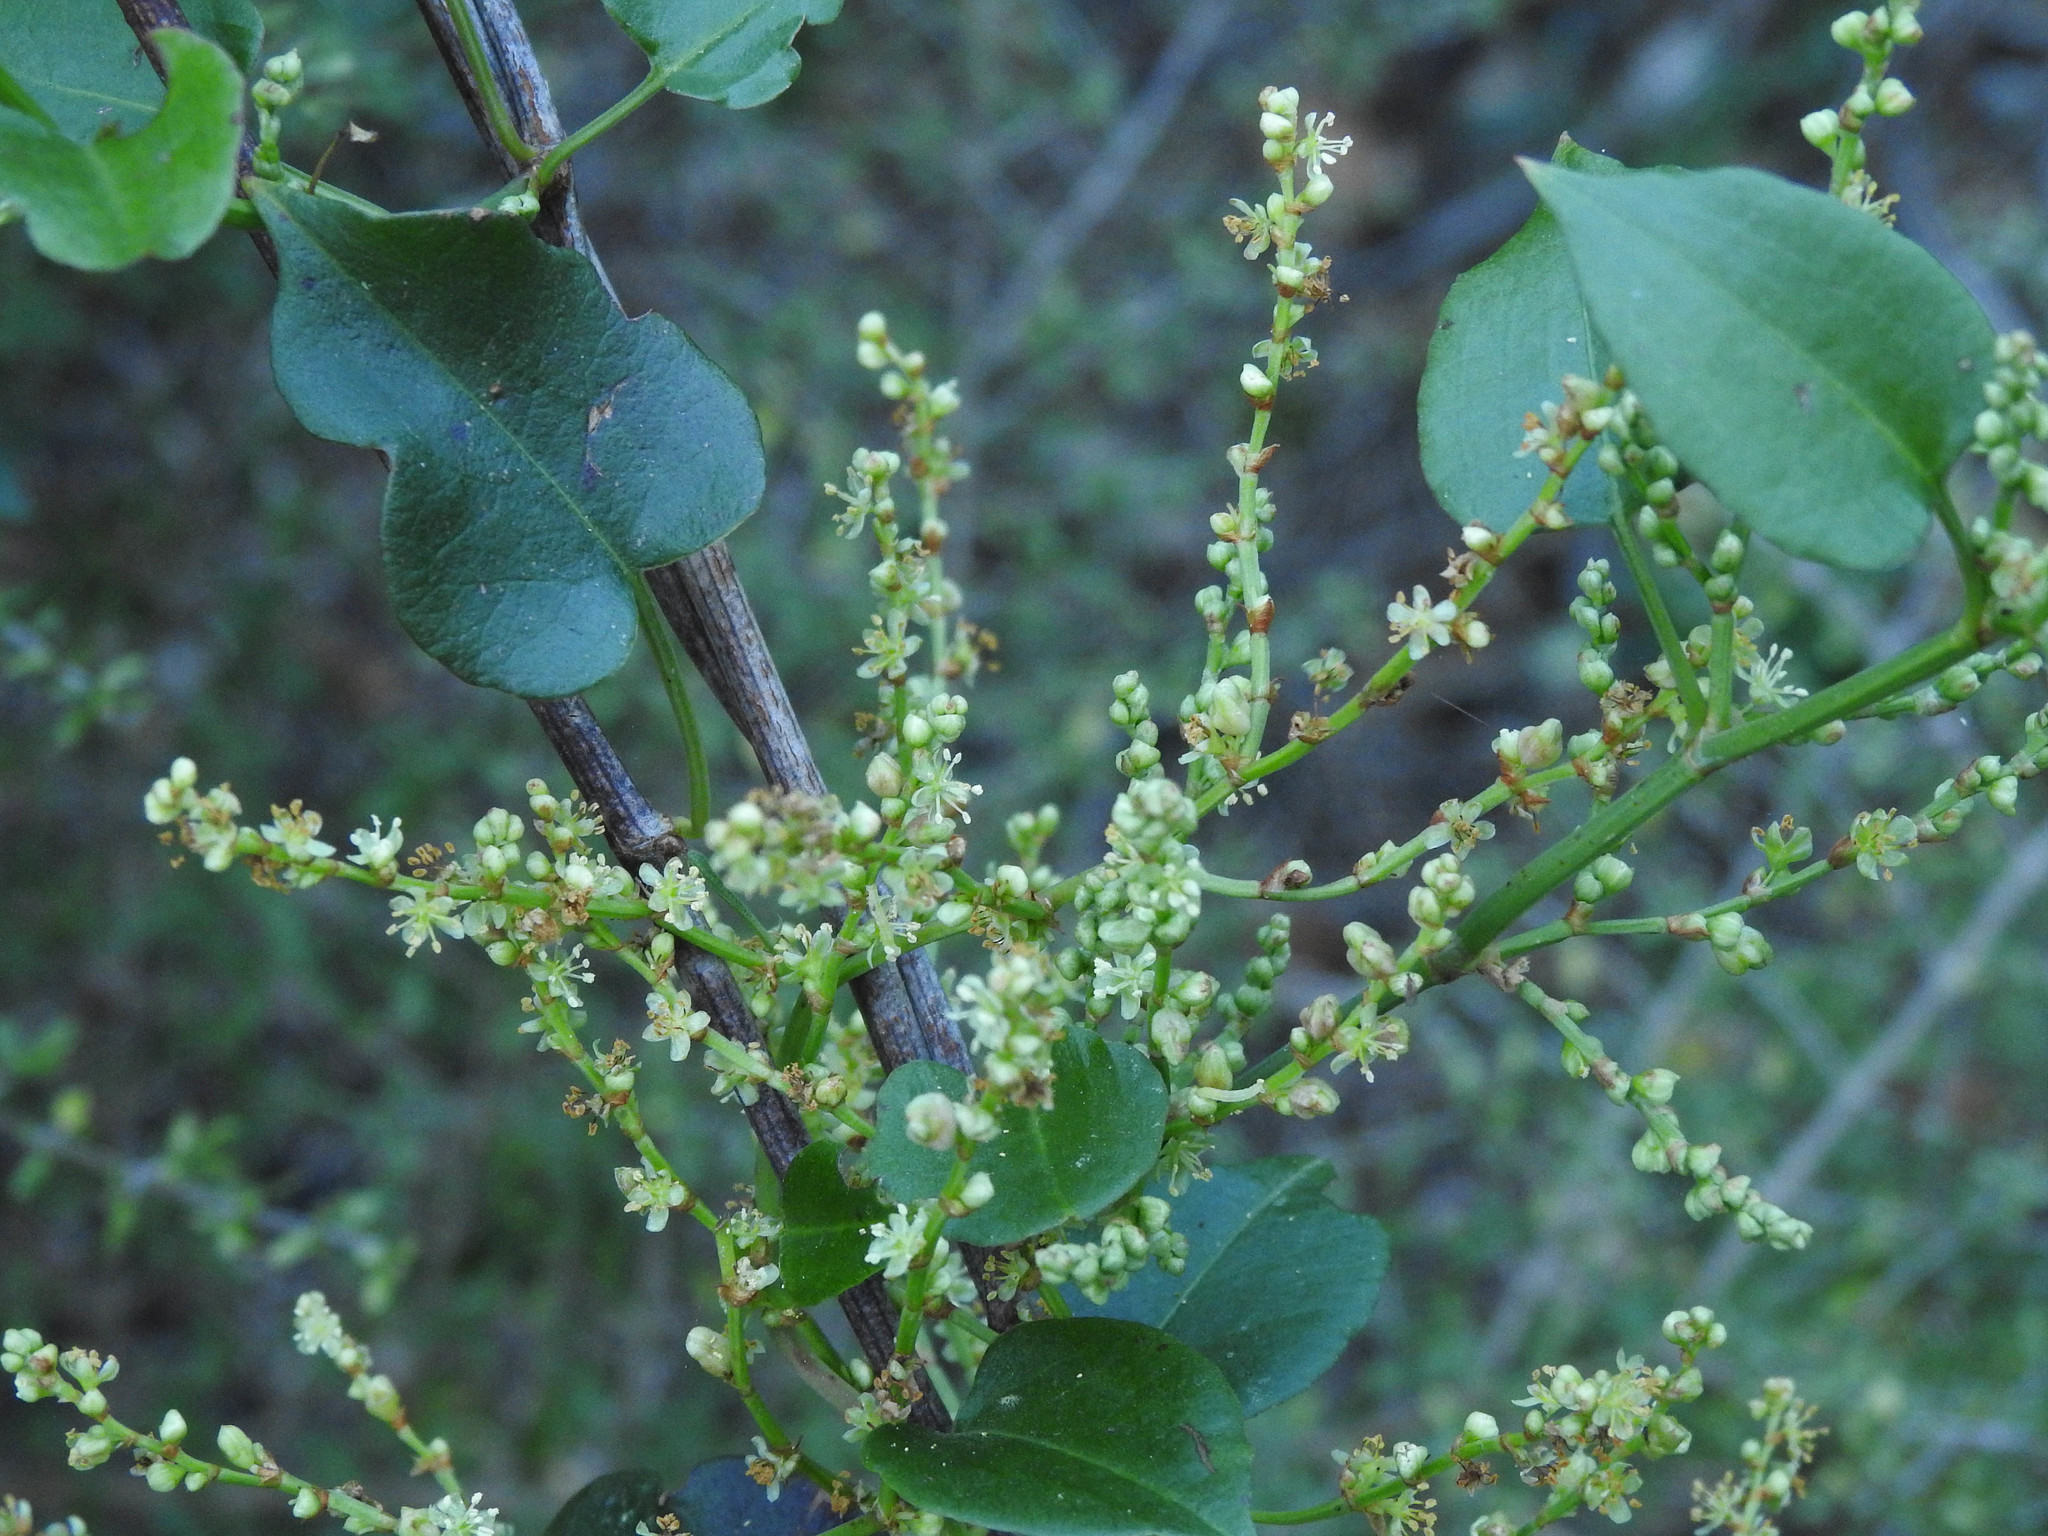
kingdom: Plantae
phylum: Tracheophyta
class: Magnoliopsida
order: Caryophyllales
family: Polygonaceae
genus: Muehlenbeckia
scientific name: Muehlenbeckia australis
